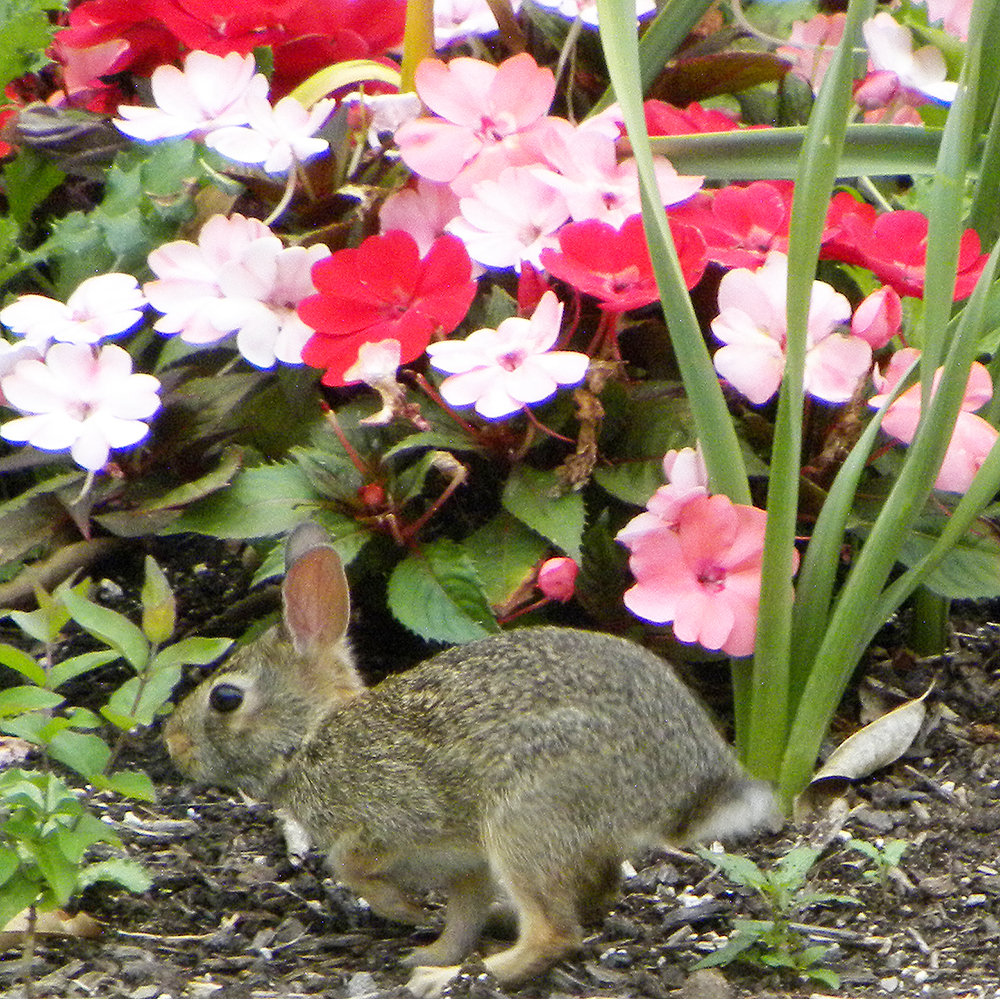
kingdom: Animalia
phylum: Chordata
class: Mammalia
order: Lagomorpha
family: Leporidae
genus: Sylvilagus
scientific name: Sylvilagus floridanus
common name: Eastern cottontail
